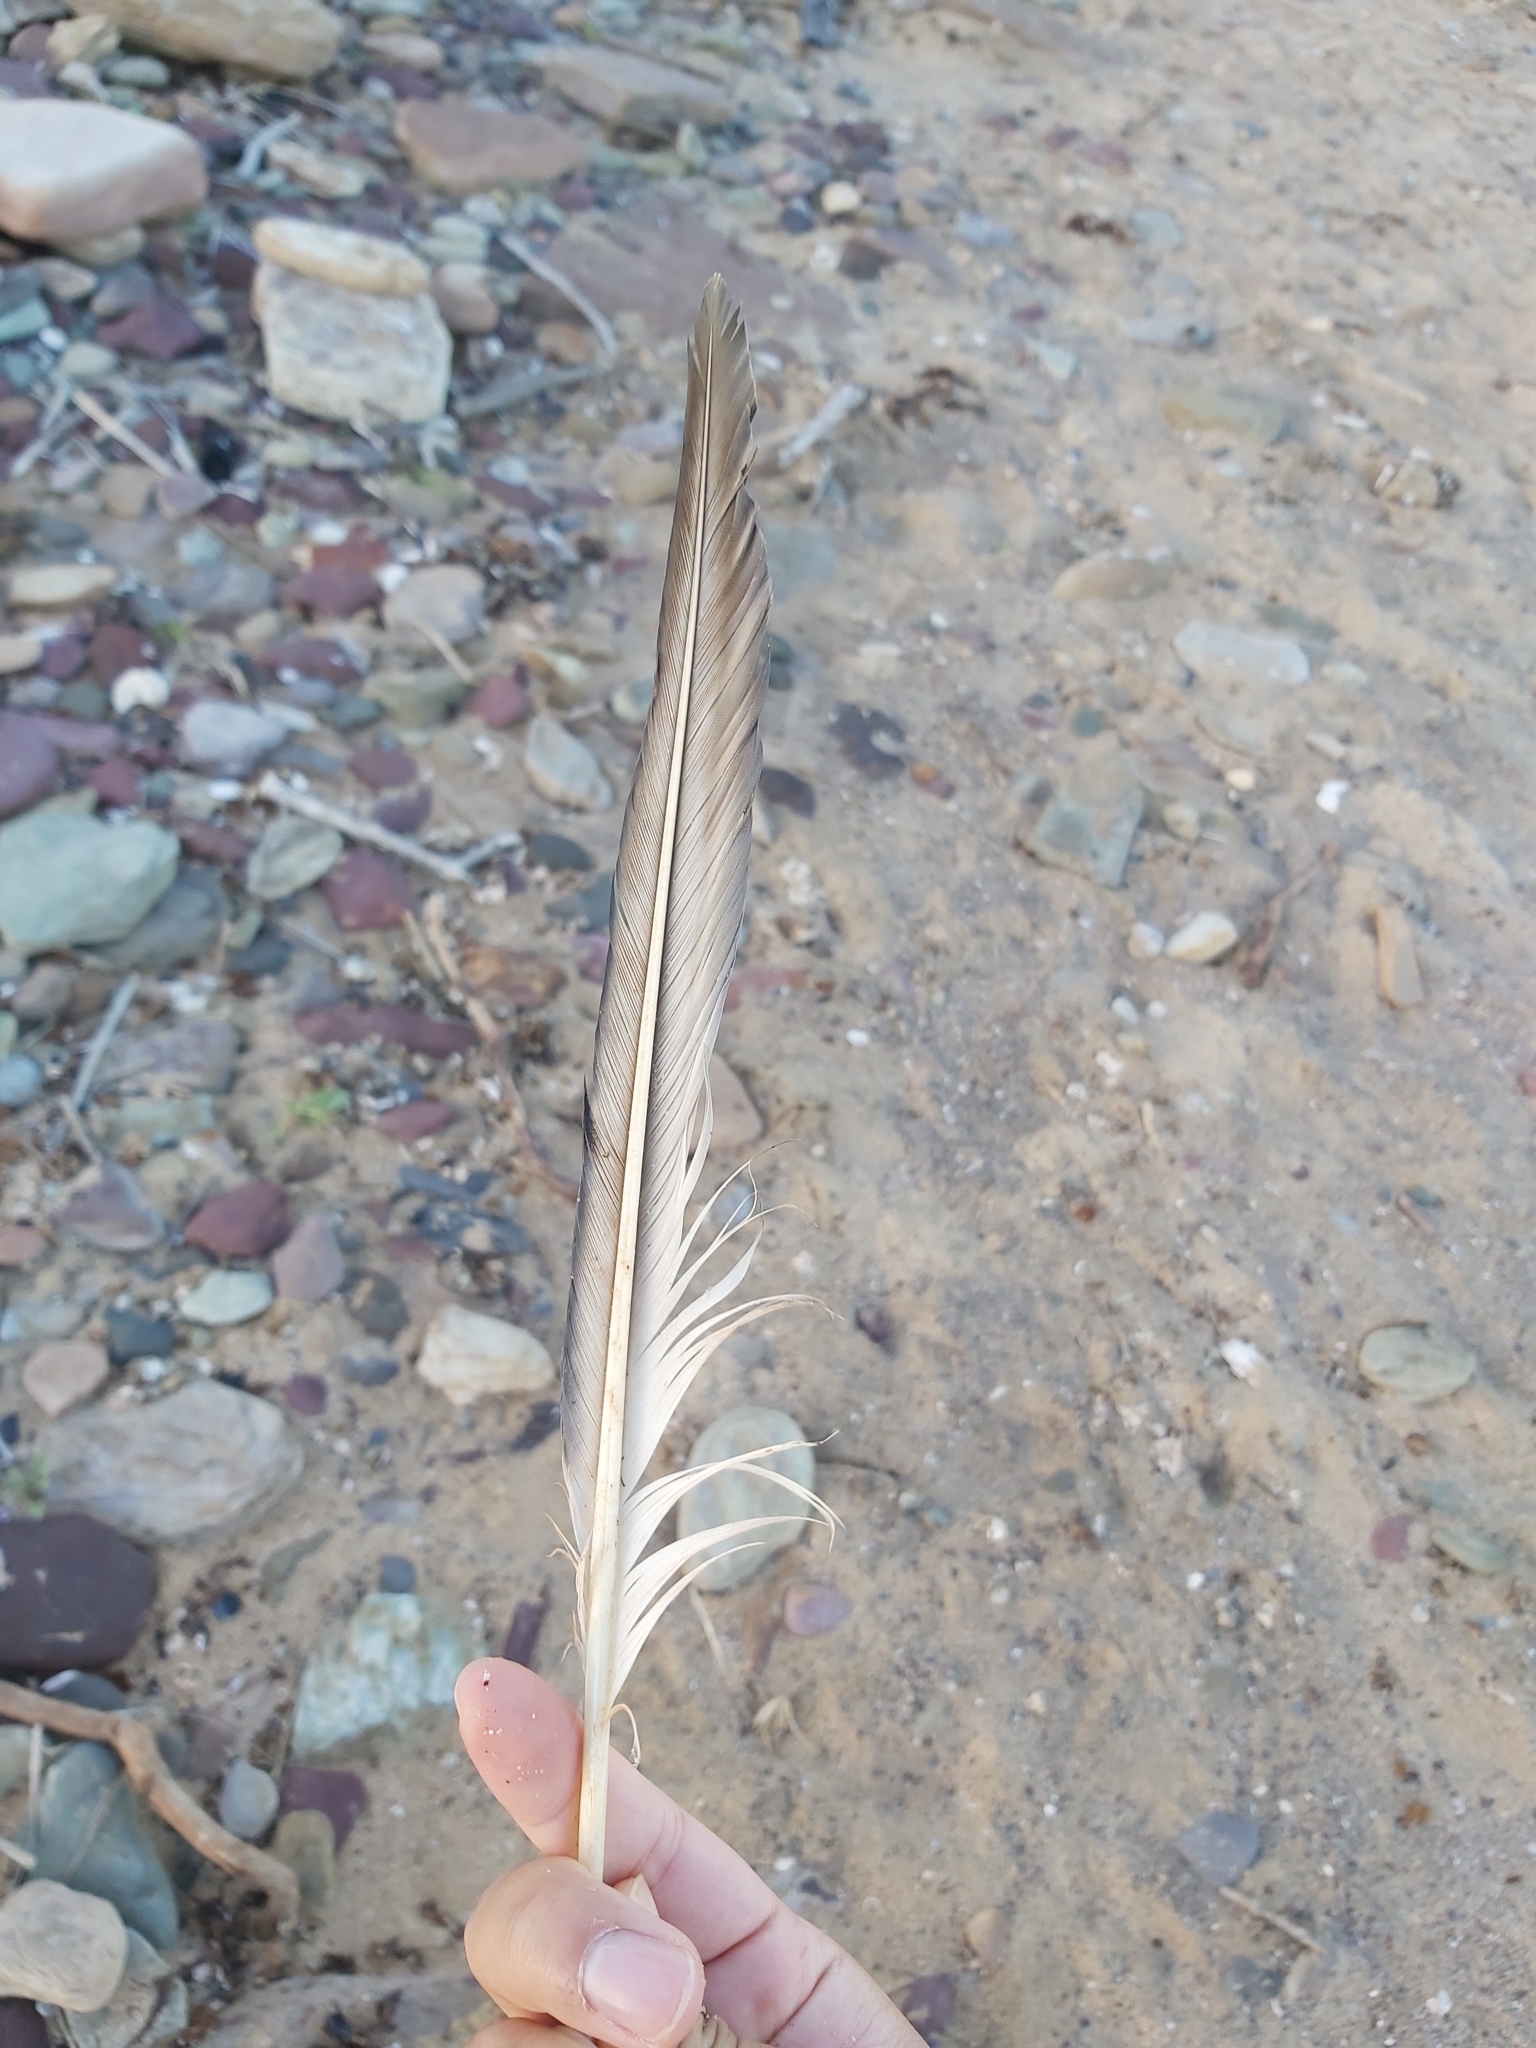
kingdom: Animalia
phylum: Chordata
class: Aves
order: Suliformes
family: Sulidae
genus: Morus
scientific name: Morus serrator
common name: Australasian gannet
